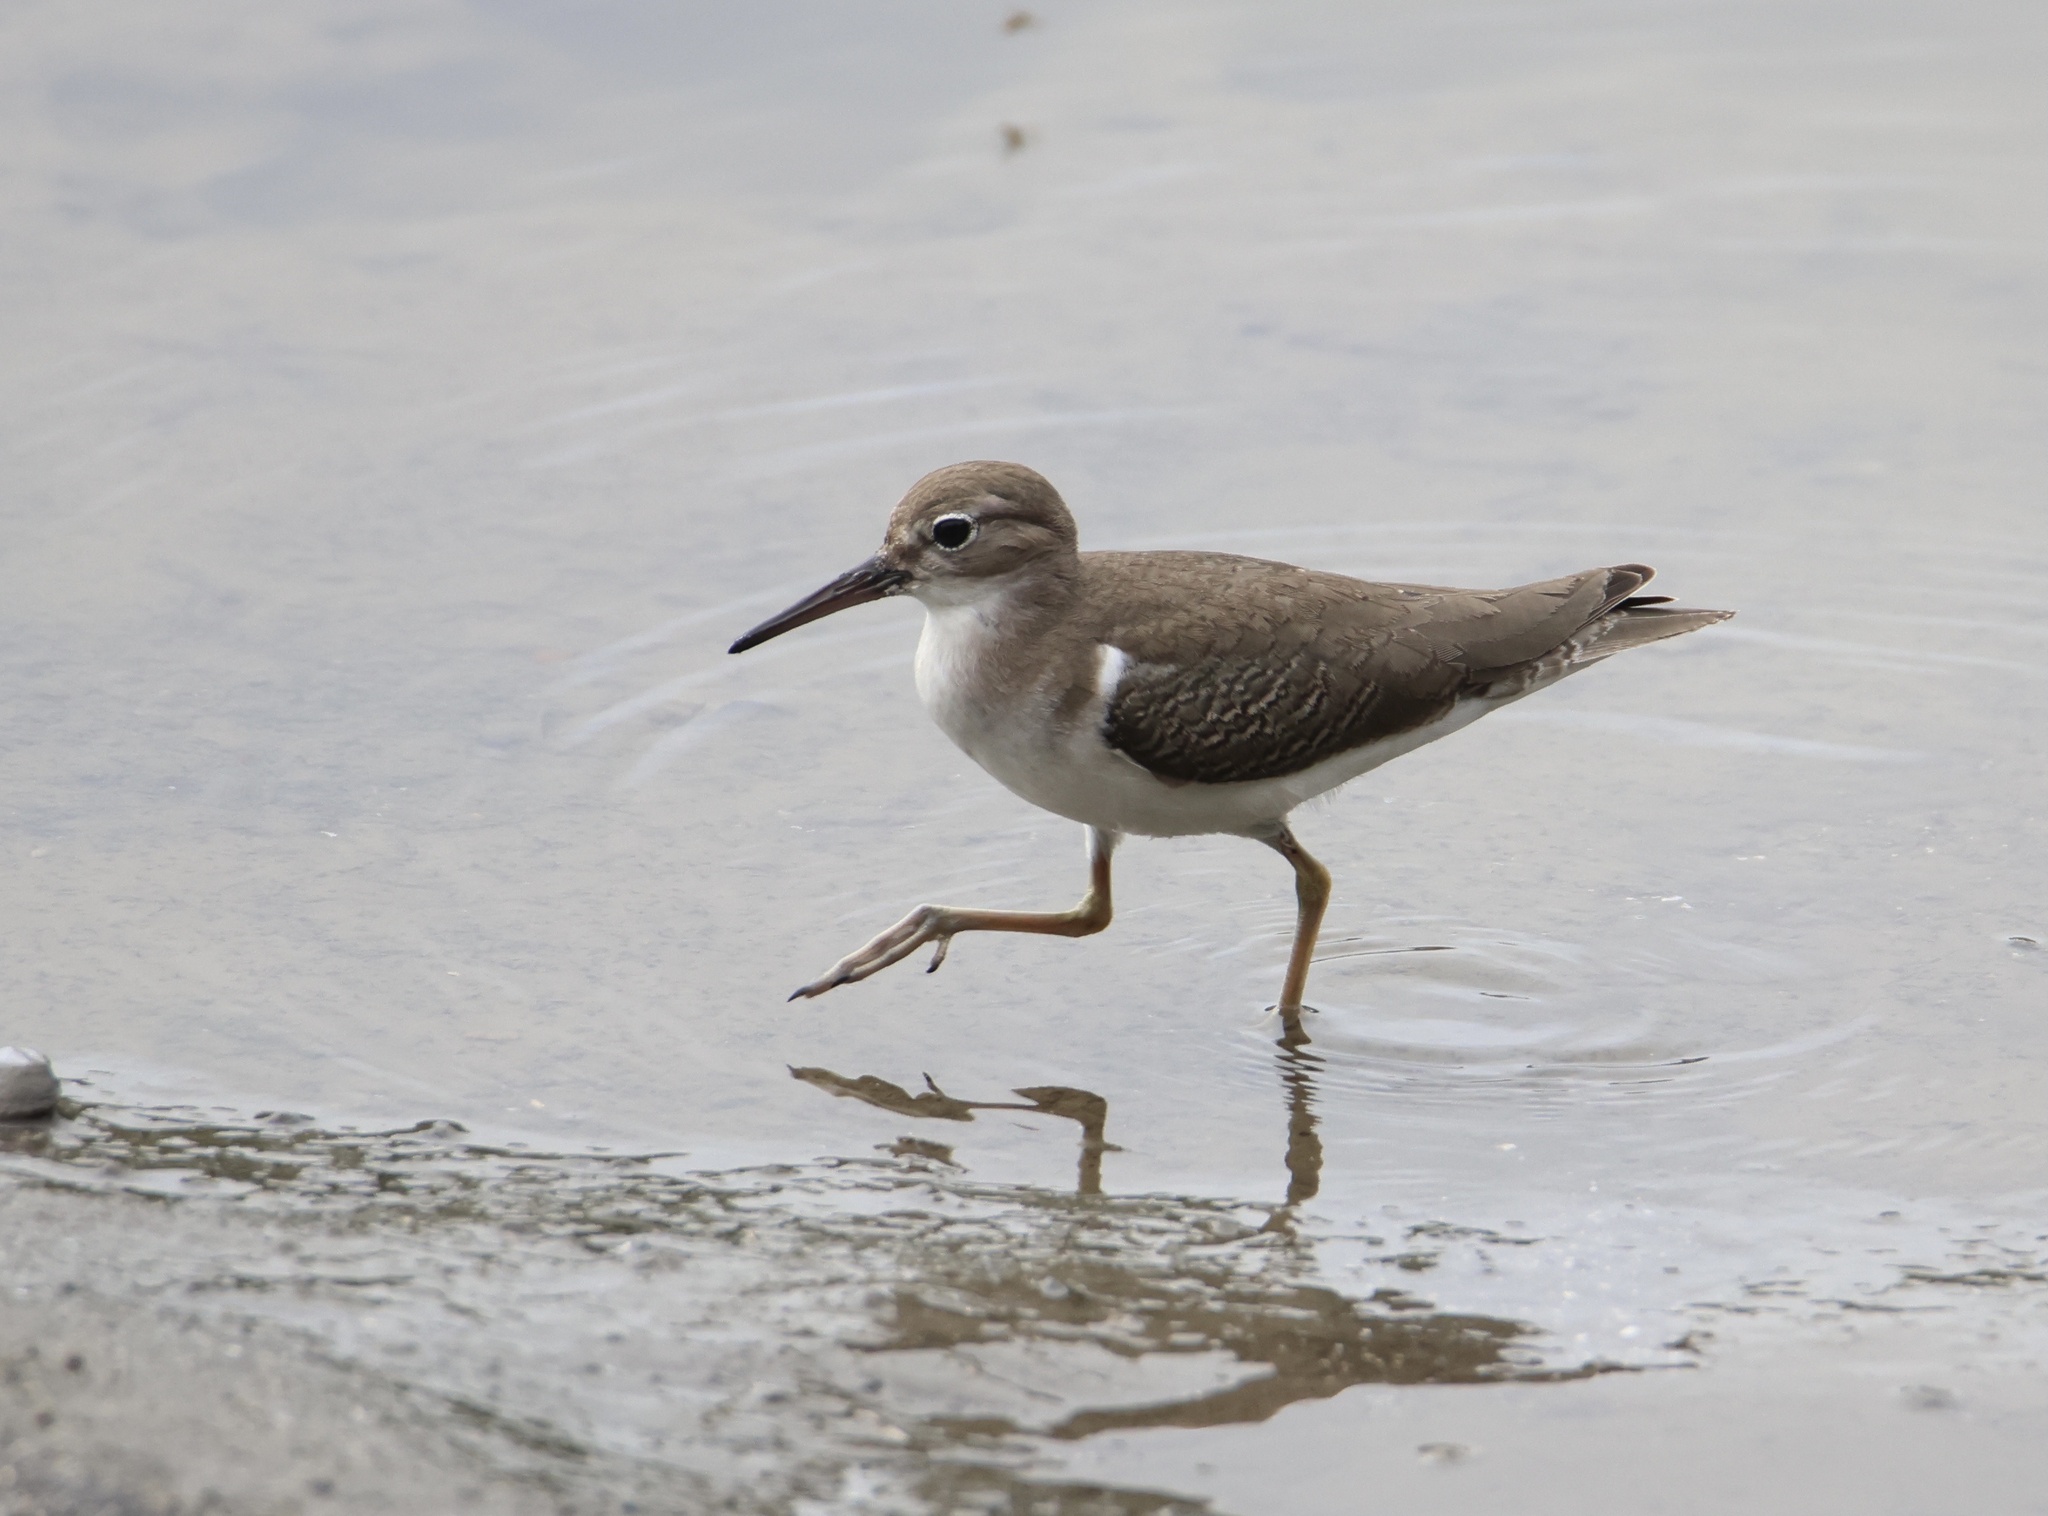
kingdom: Animalia
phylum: Chordata
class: Aves
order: Charadriiformes
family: Scolopacidae
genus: Actitis
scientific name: Actitis macularius
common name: Spotted sandpiper
